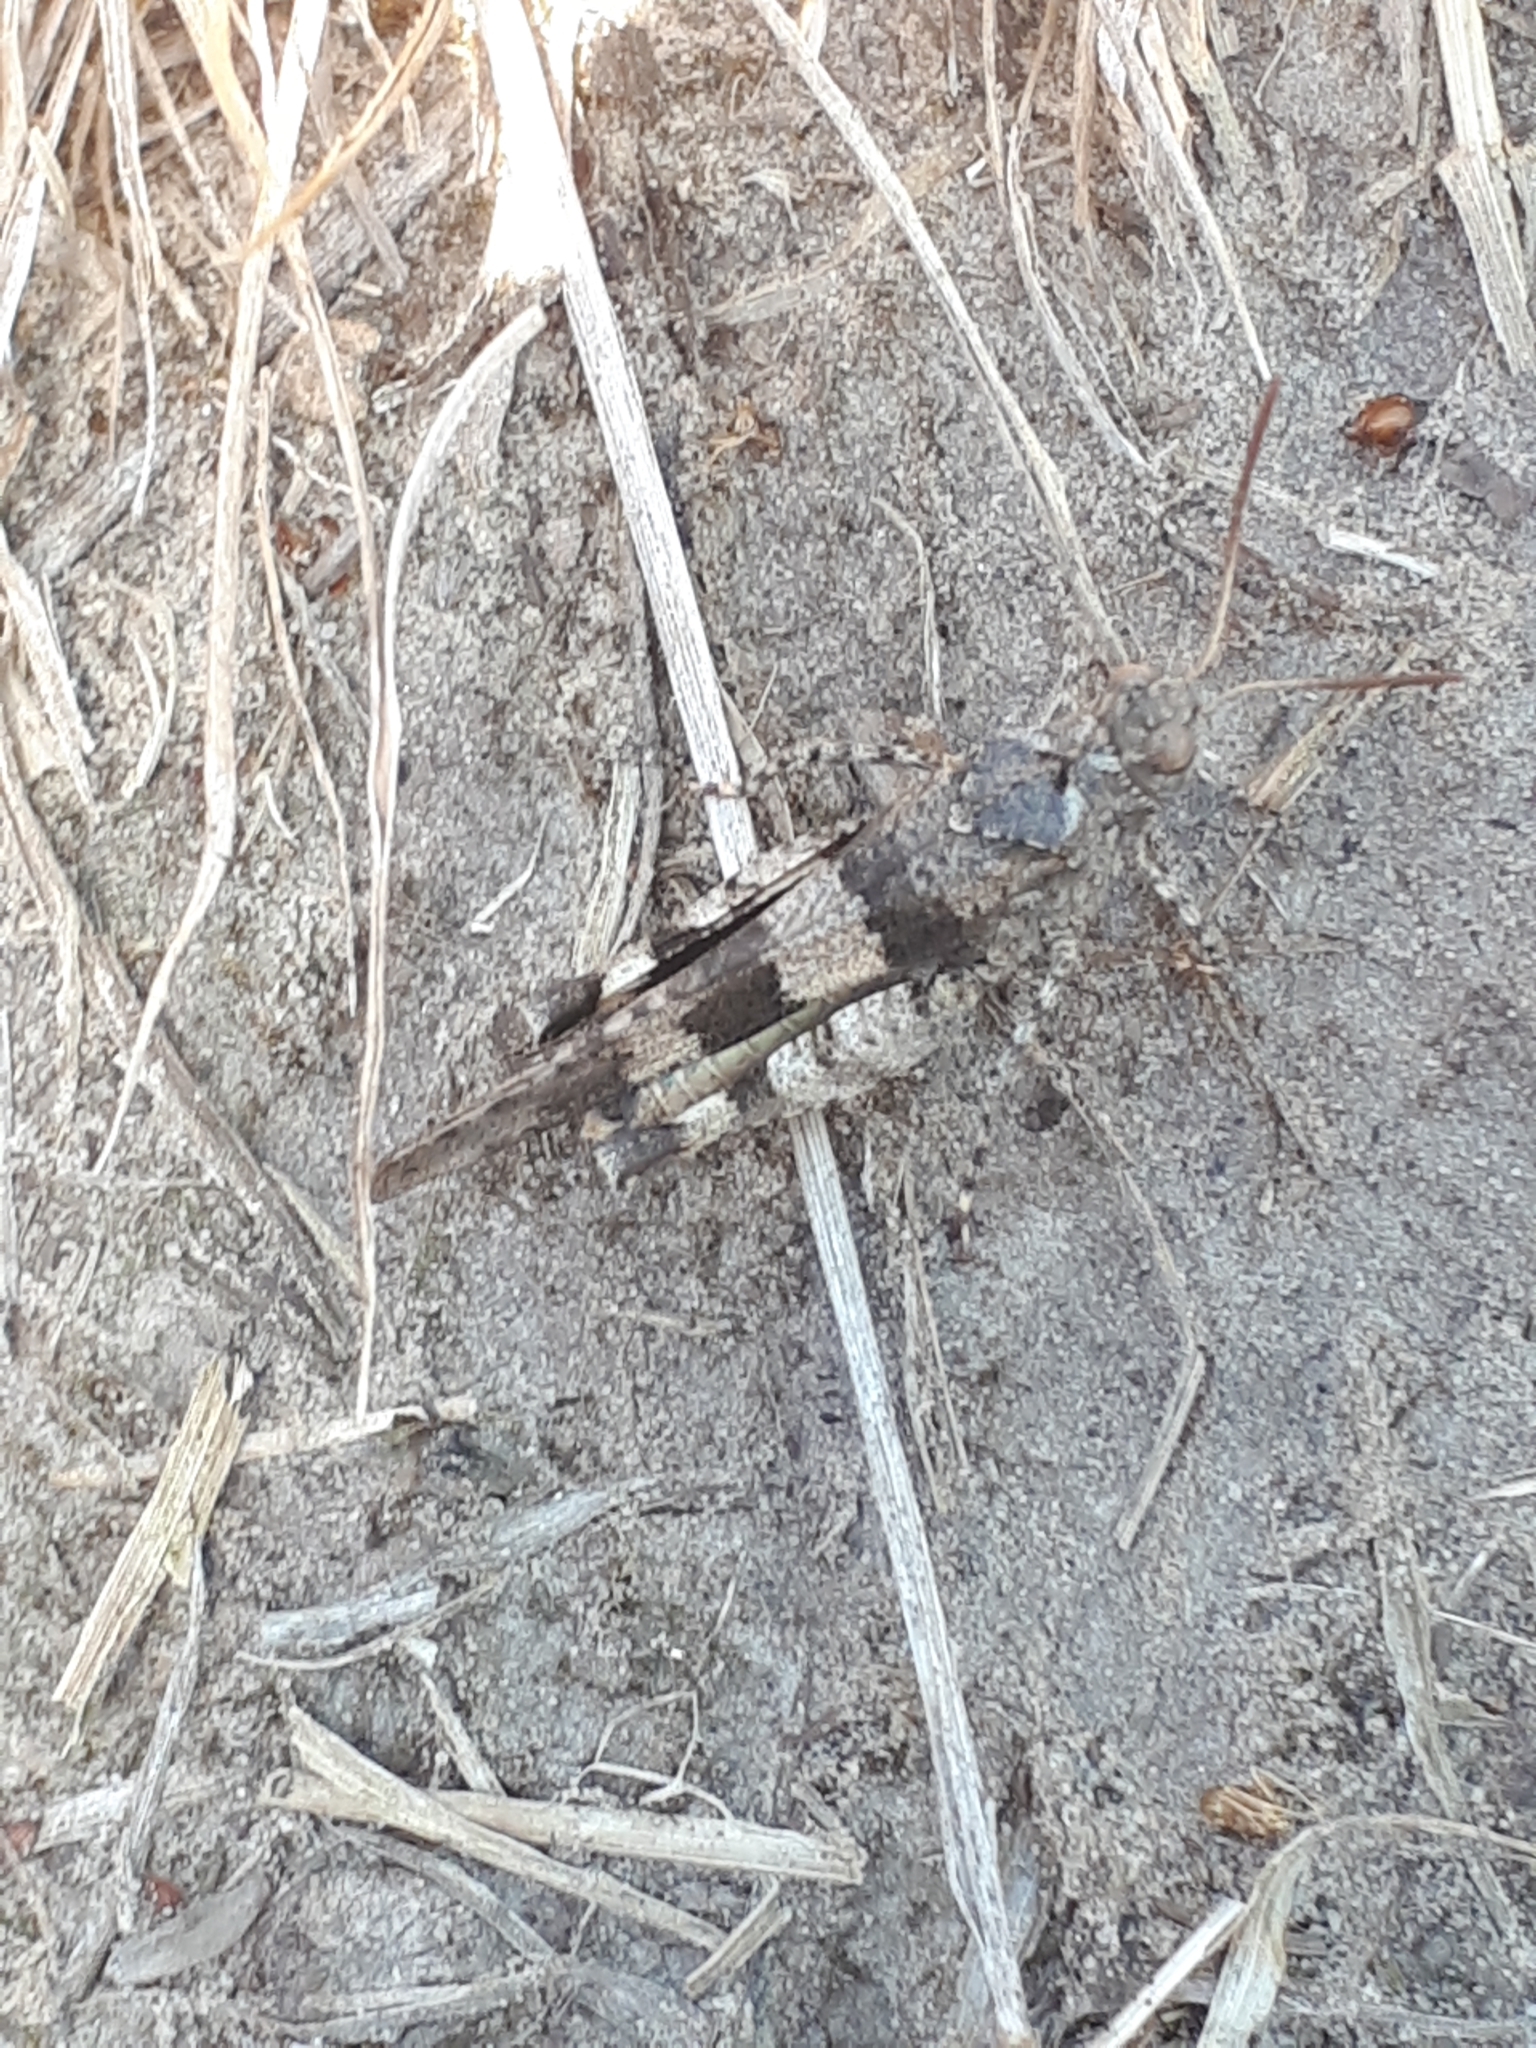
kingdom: Animalia
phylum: Arthropoda
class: Insecta
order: Orthoptera
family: Acrididae
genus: Oedipoda
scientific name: Oedipoda caerulescens
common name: Blue-winged grasshopper
